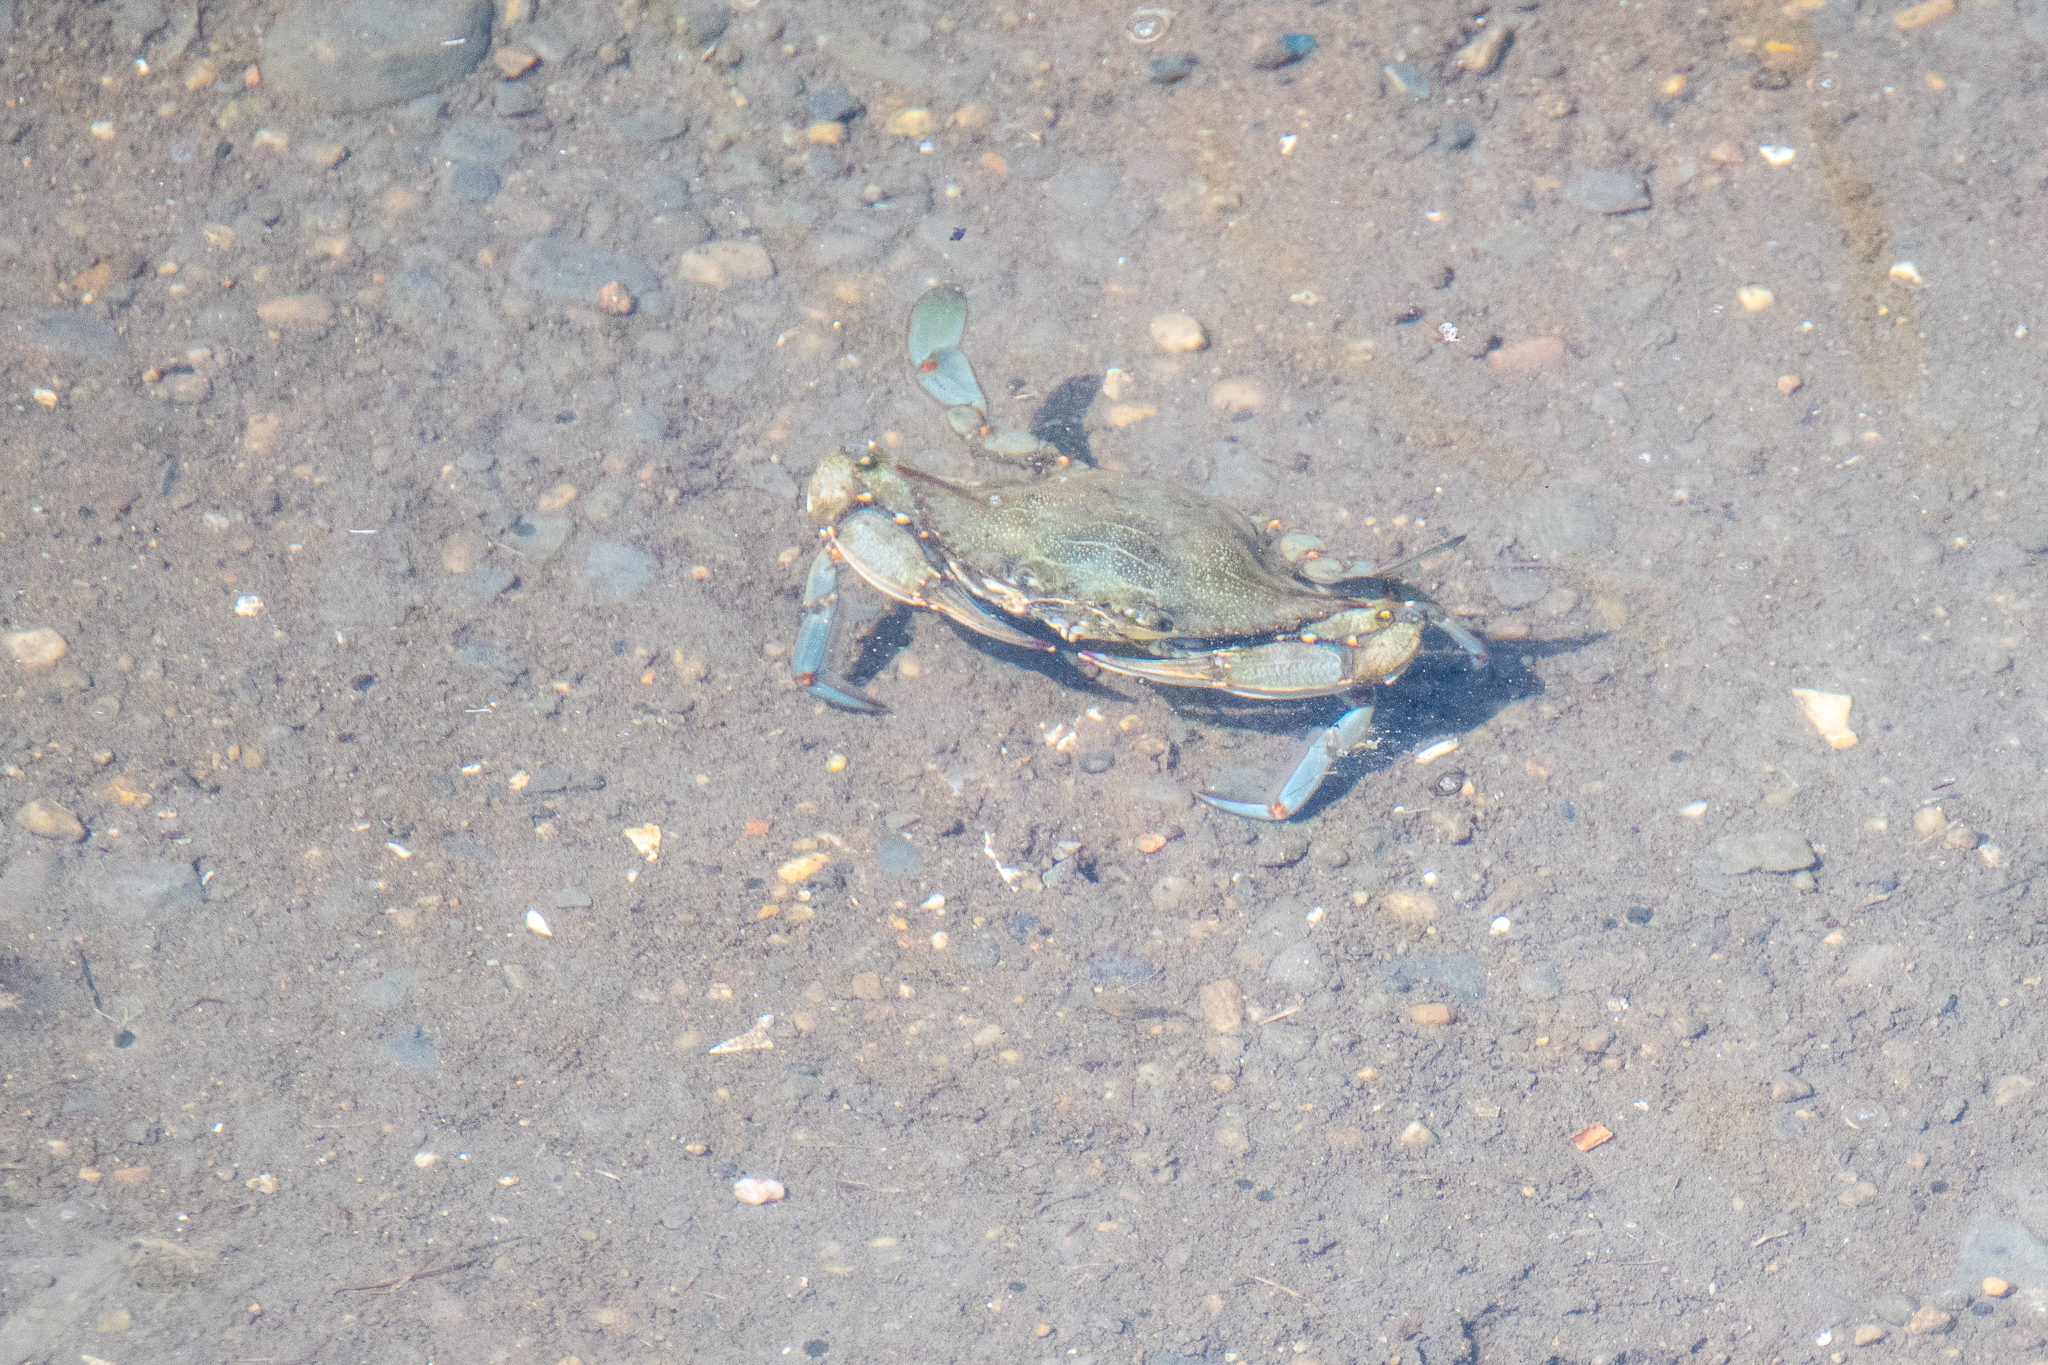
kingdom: Animalia
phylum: Arthropoda
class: Malacostraca
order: Decapoda
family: Portunidae
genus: Callinectes
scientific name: Callinectes sapidus
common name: Blue crab
